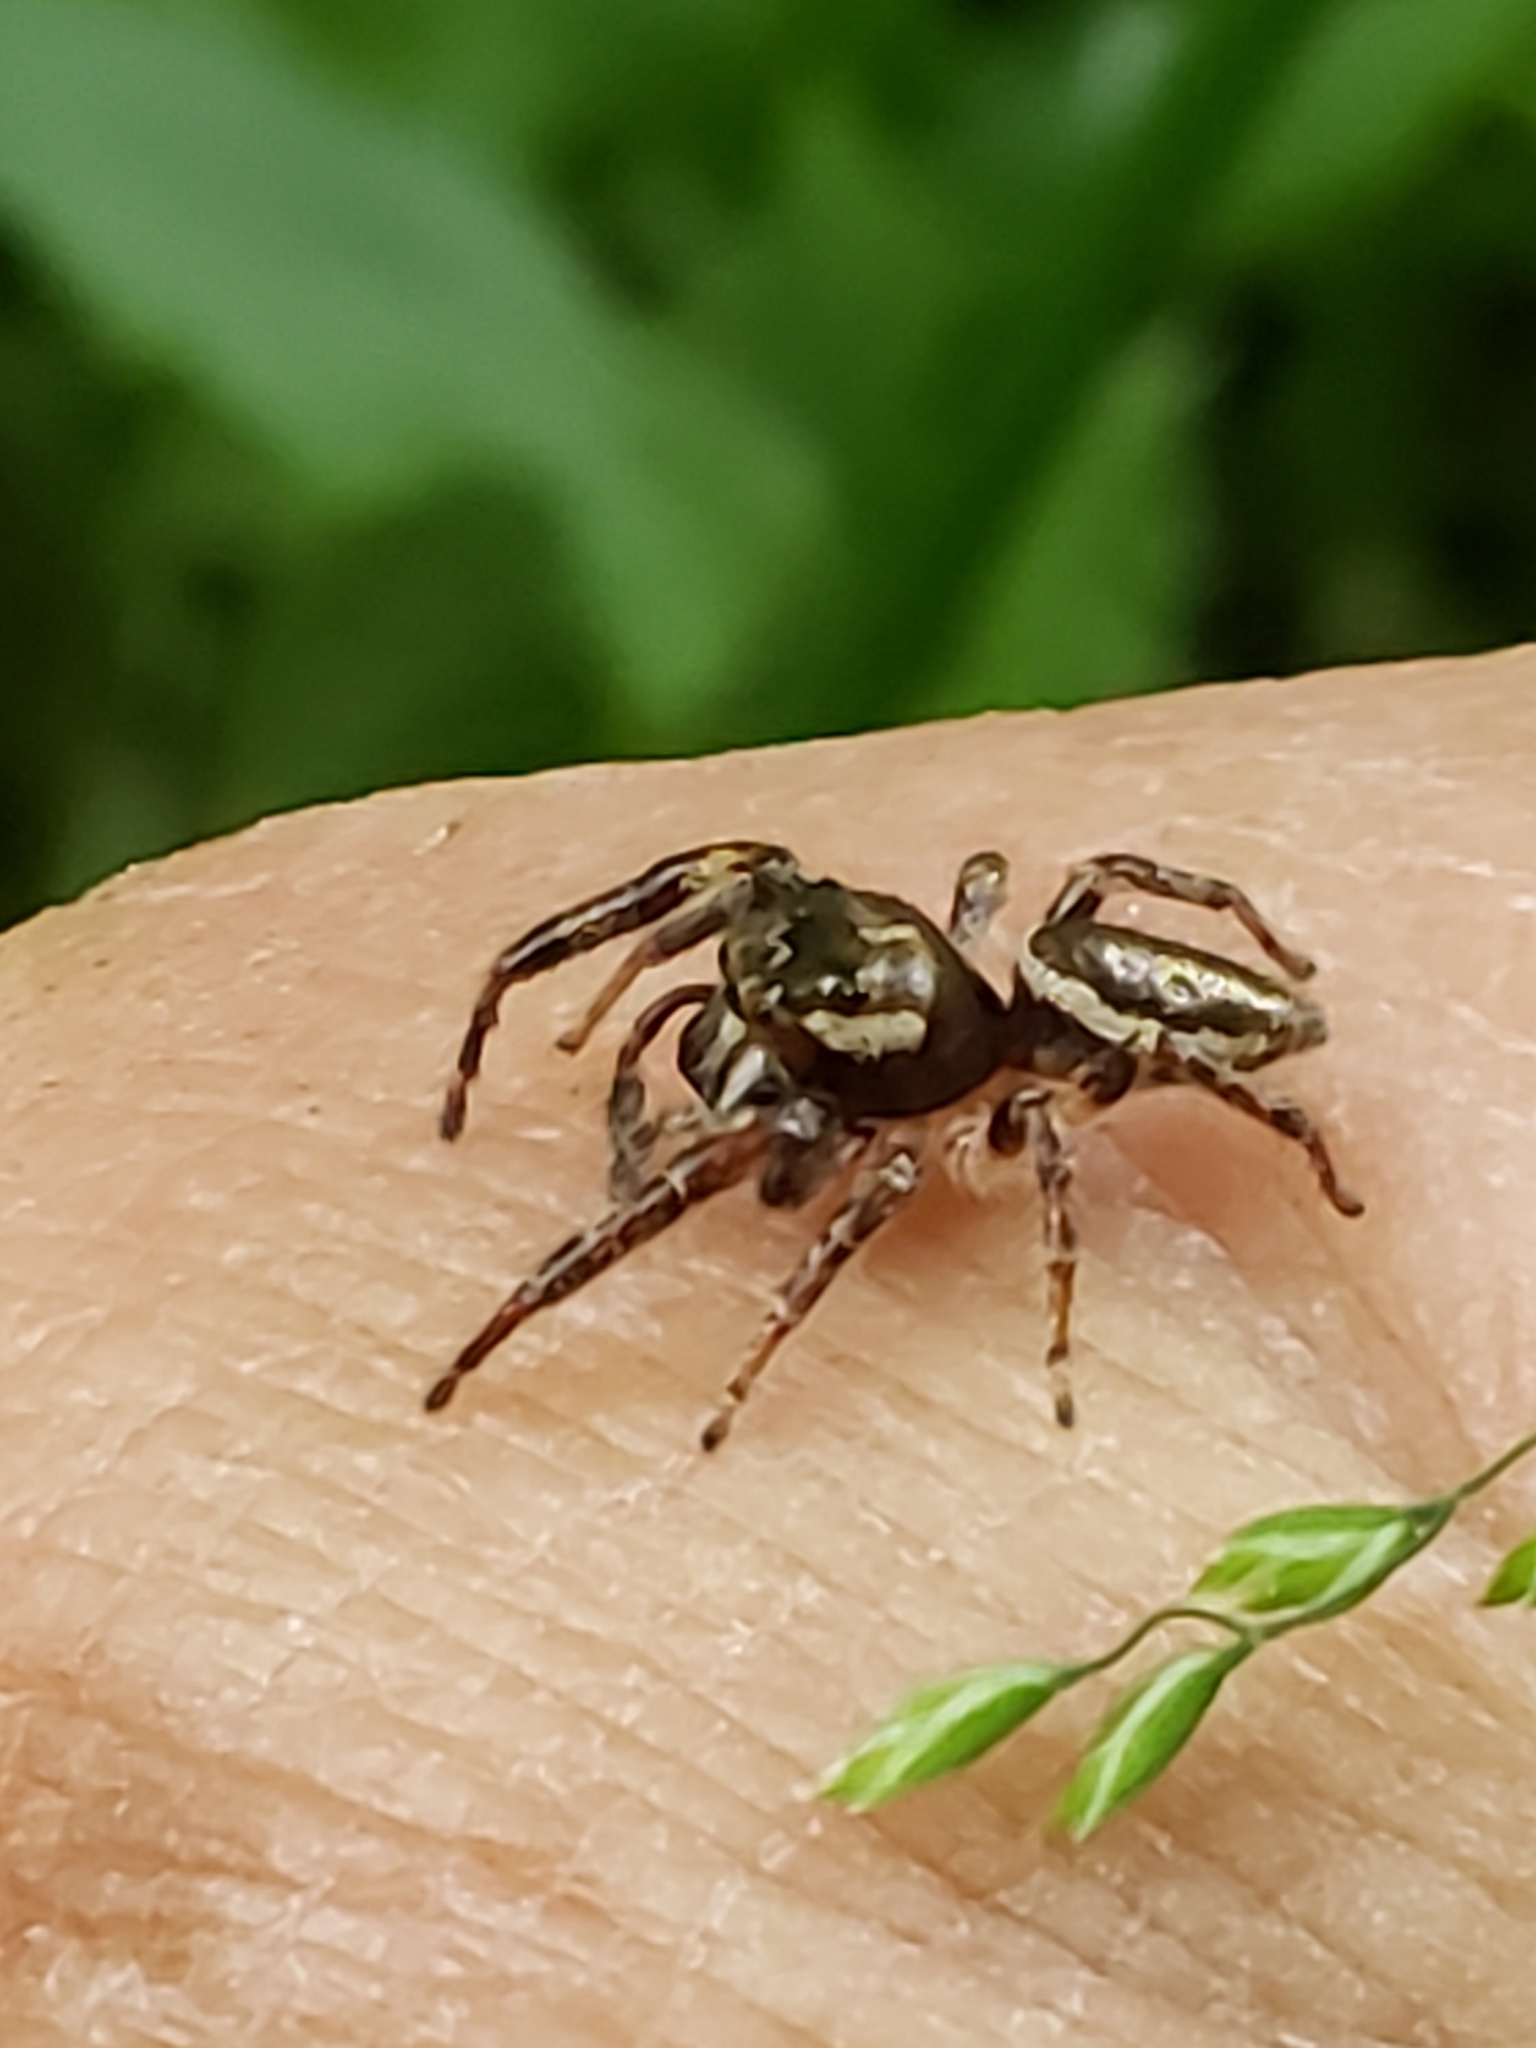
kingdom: Animalia
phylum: Arthropoda
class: Arachnida
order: Araneae
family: Salticidae
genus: Eris
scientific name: Eris militaris
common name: Bronze jumper
